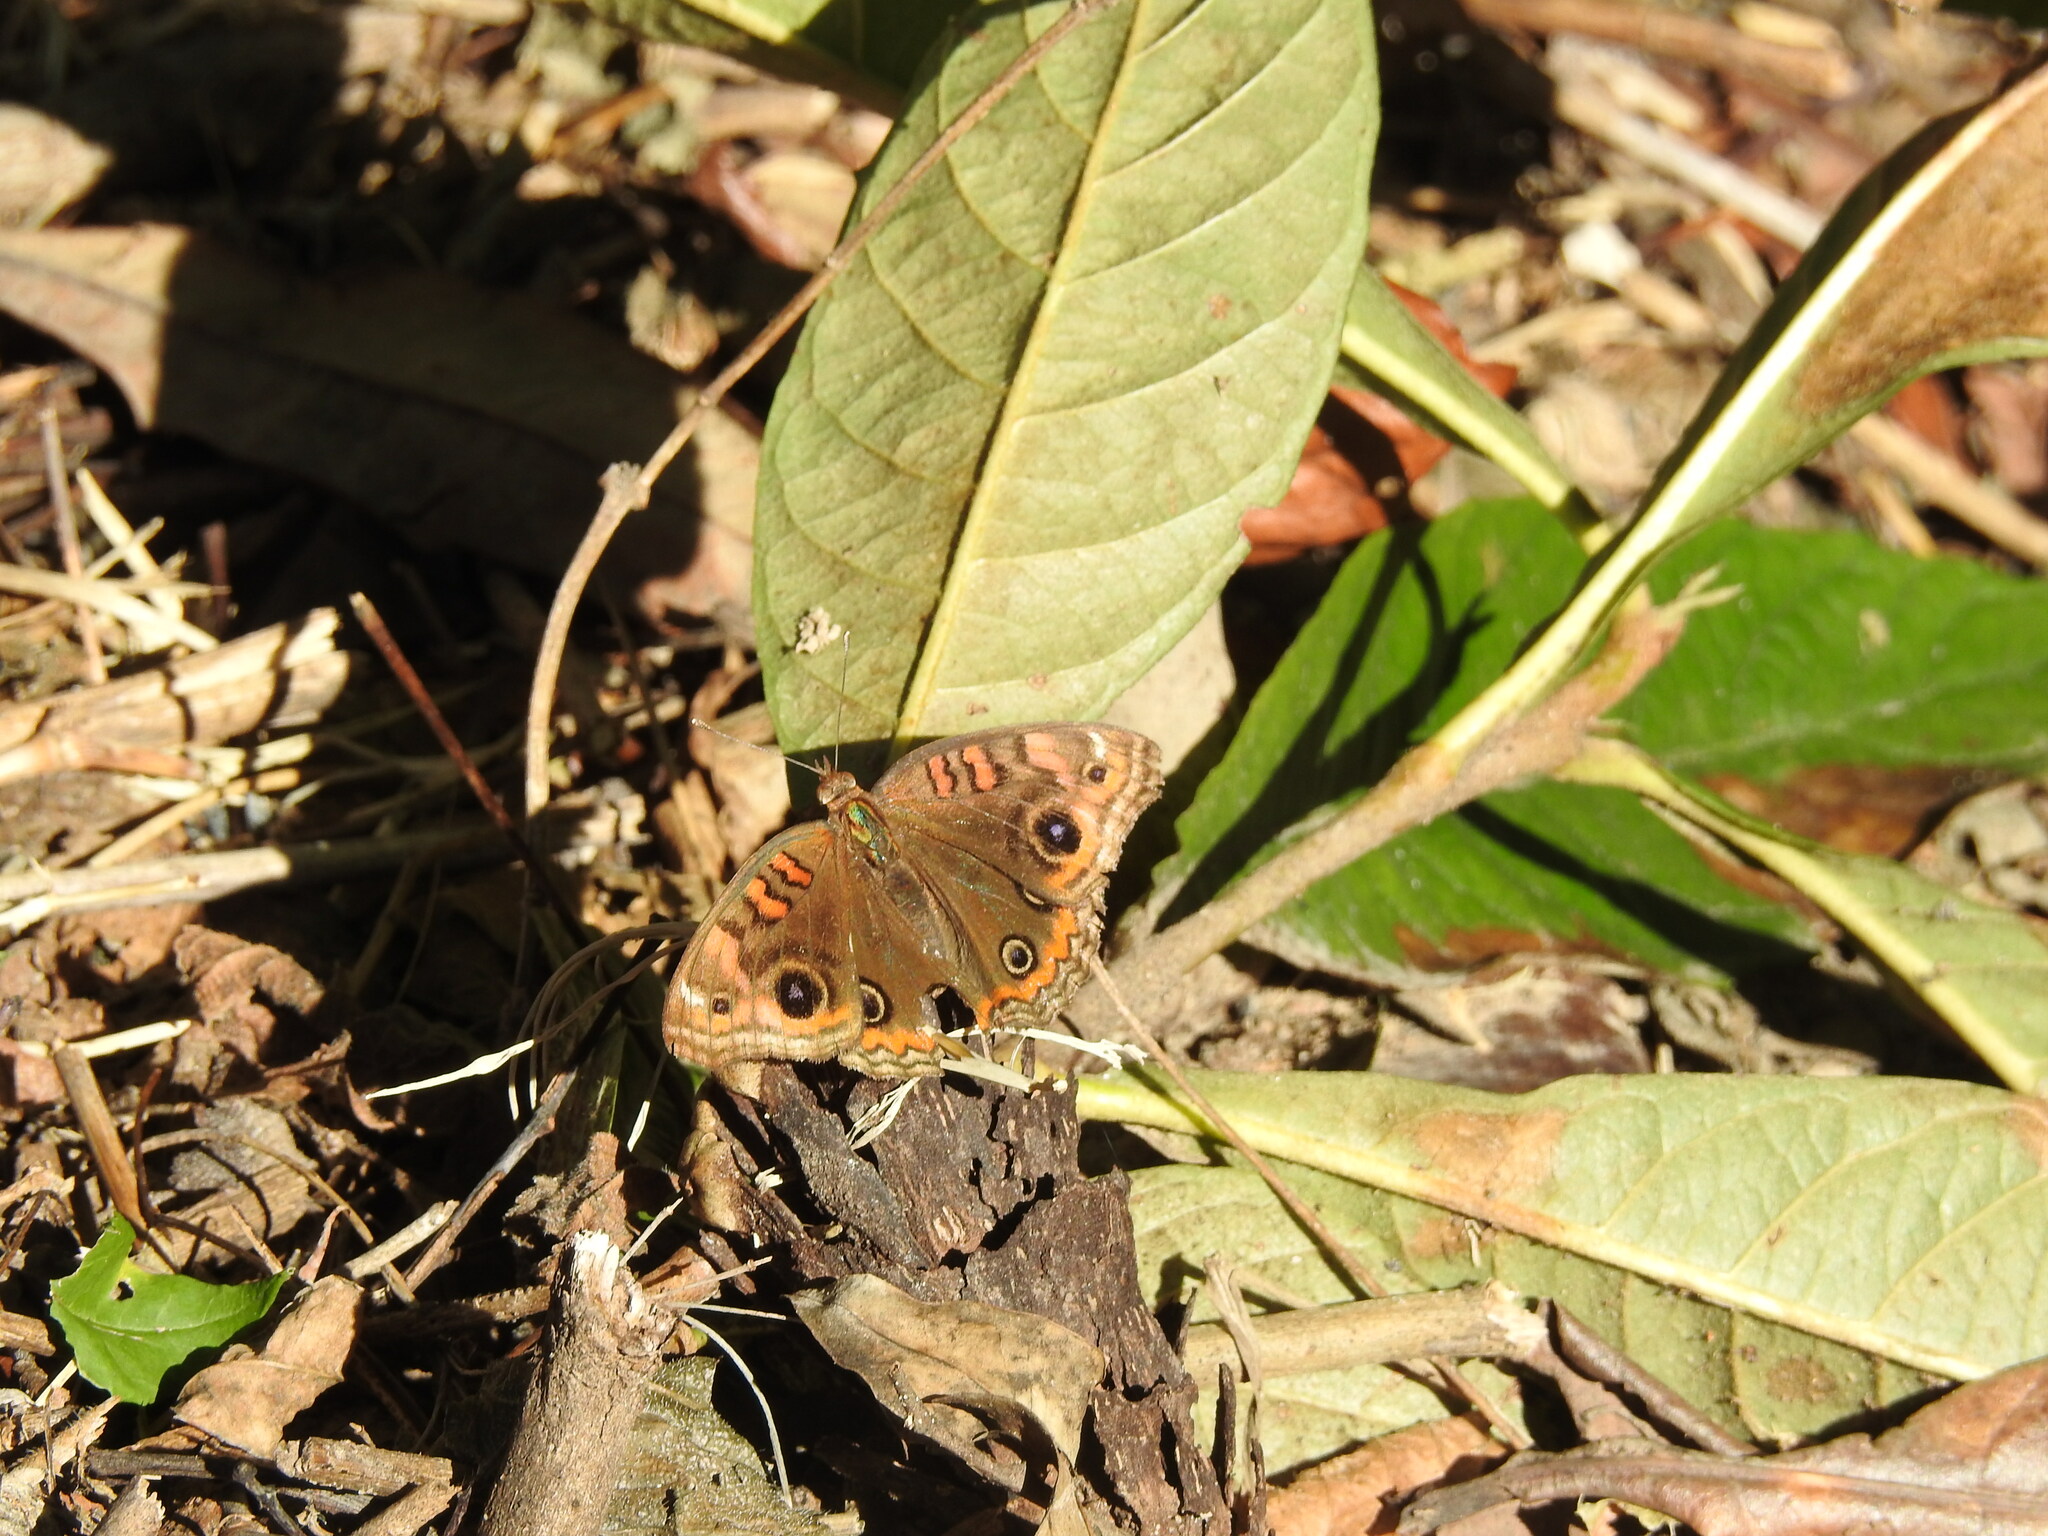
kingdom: Animalia
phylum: Arthropoda
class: Insecta
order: Lepidoptera
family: Nymphalidae
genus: Junonia
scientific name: Junonia lavinia
